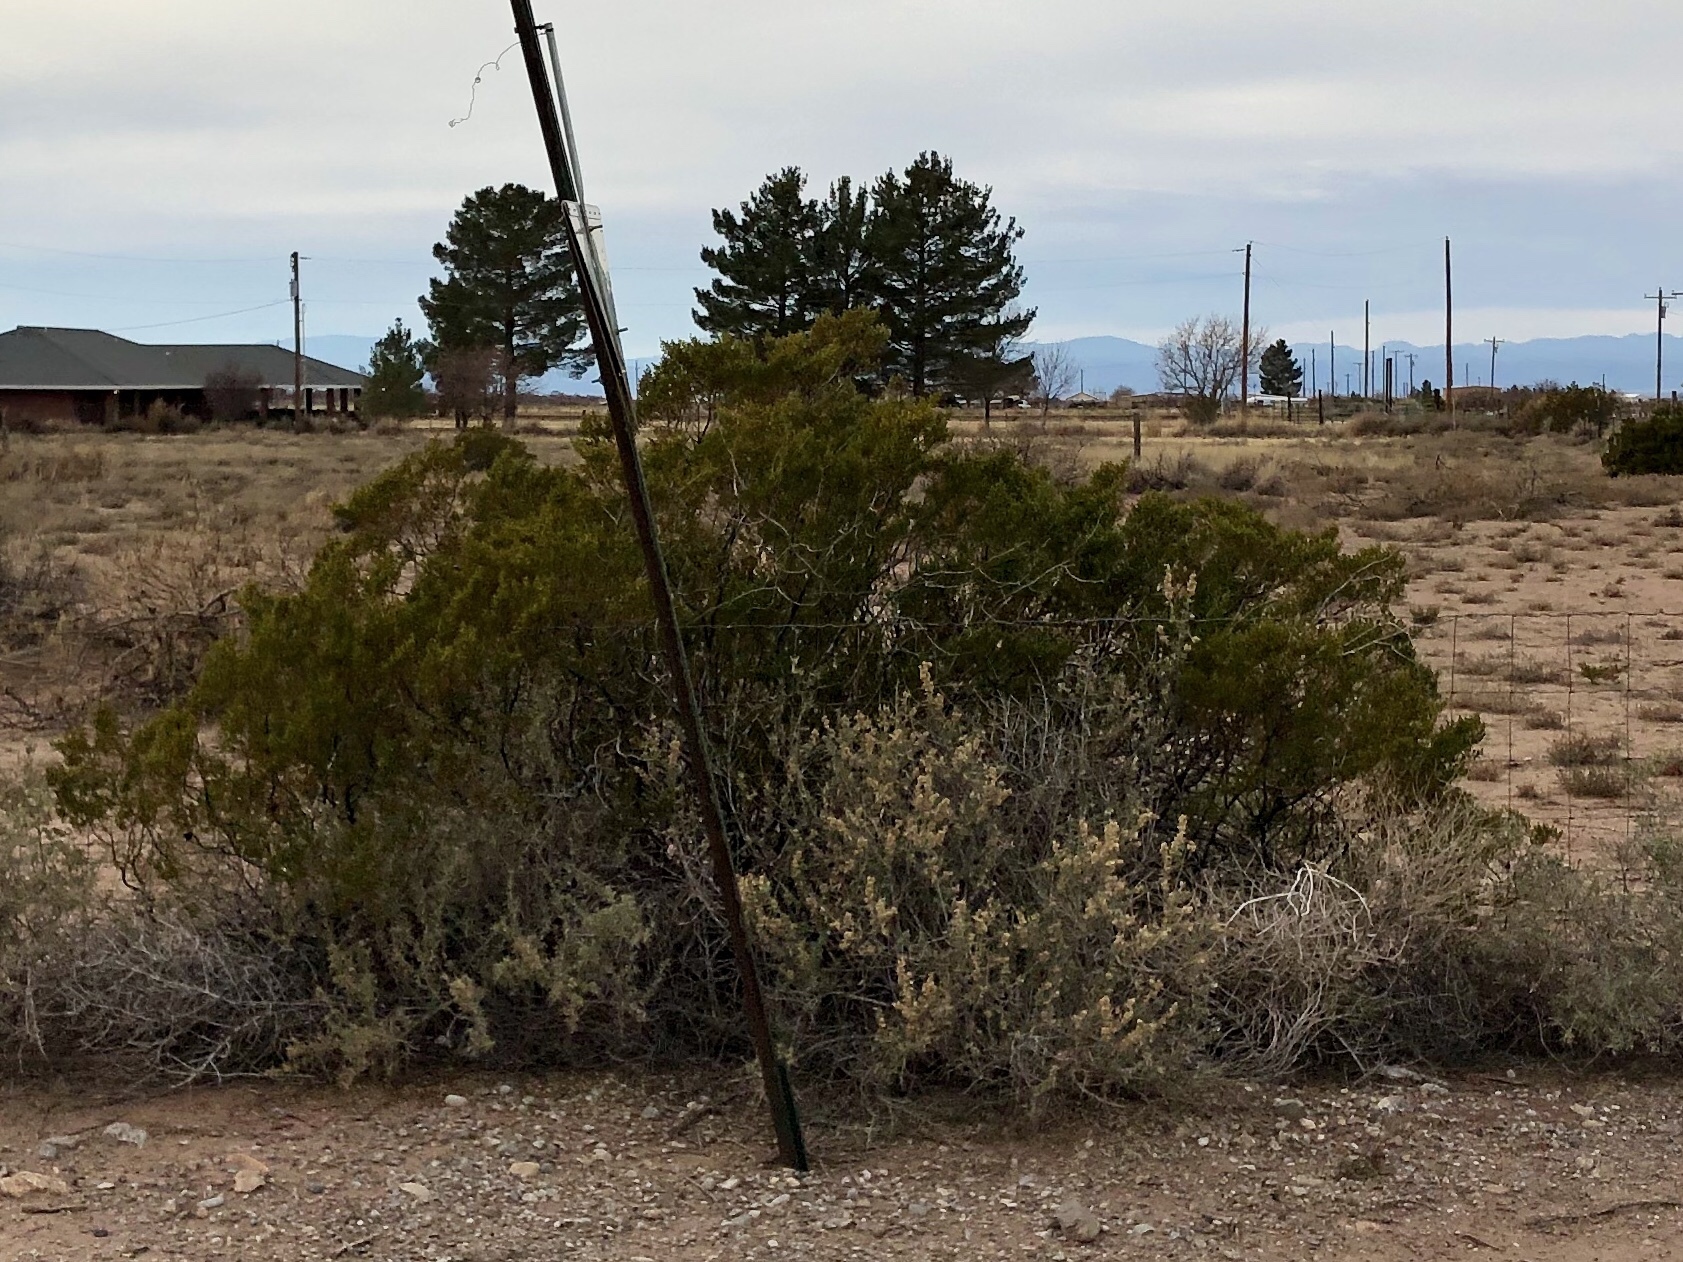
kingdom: Plantae
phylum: Tracheophyta
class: Magnoliopsida
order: Zygophyllales
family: Zygophyllaceae
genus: Larrea
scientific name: Larrea tridentata
